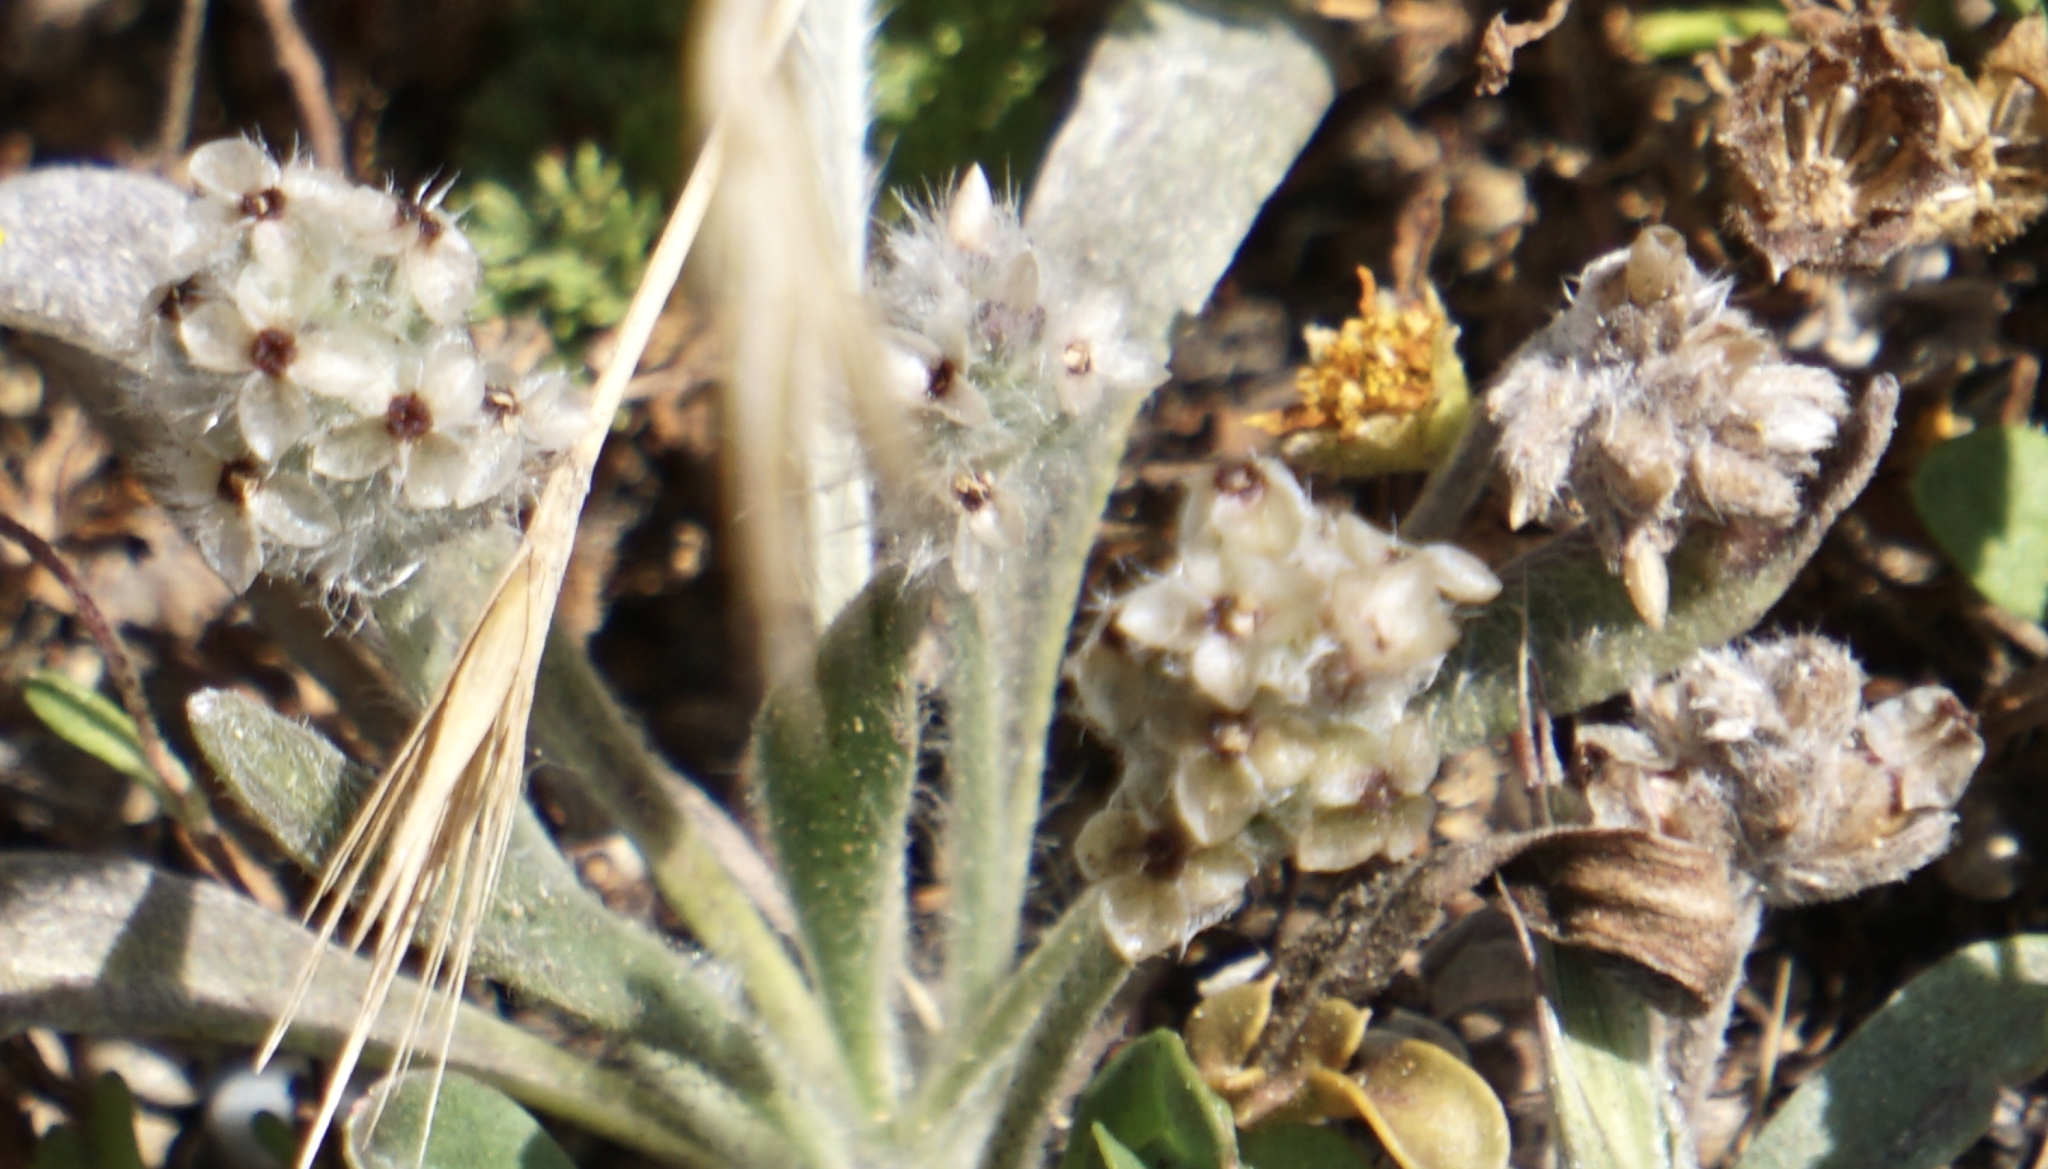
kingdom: Plantae
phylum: Tracheophyta
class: Magnoliopsida
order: Lamiales
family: Plantaginaceae
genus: Plantago
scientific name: Plantago erecta
